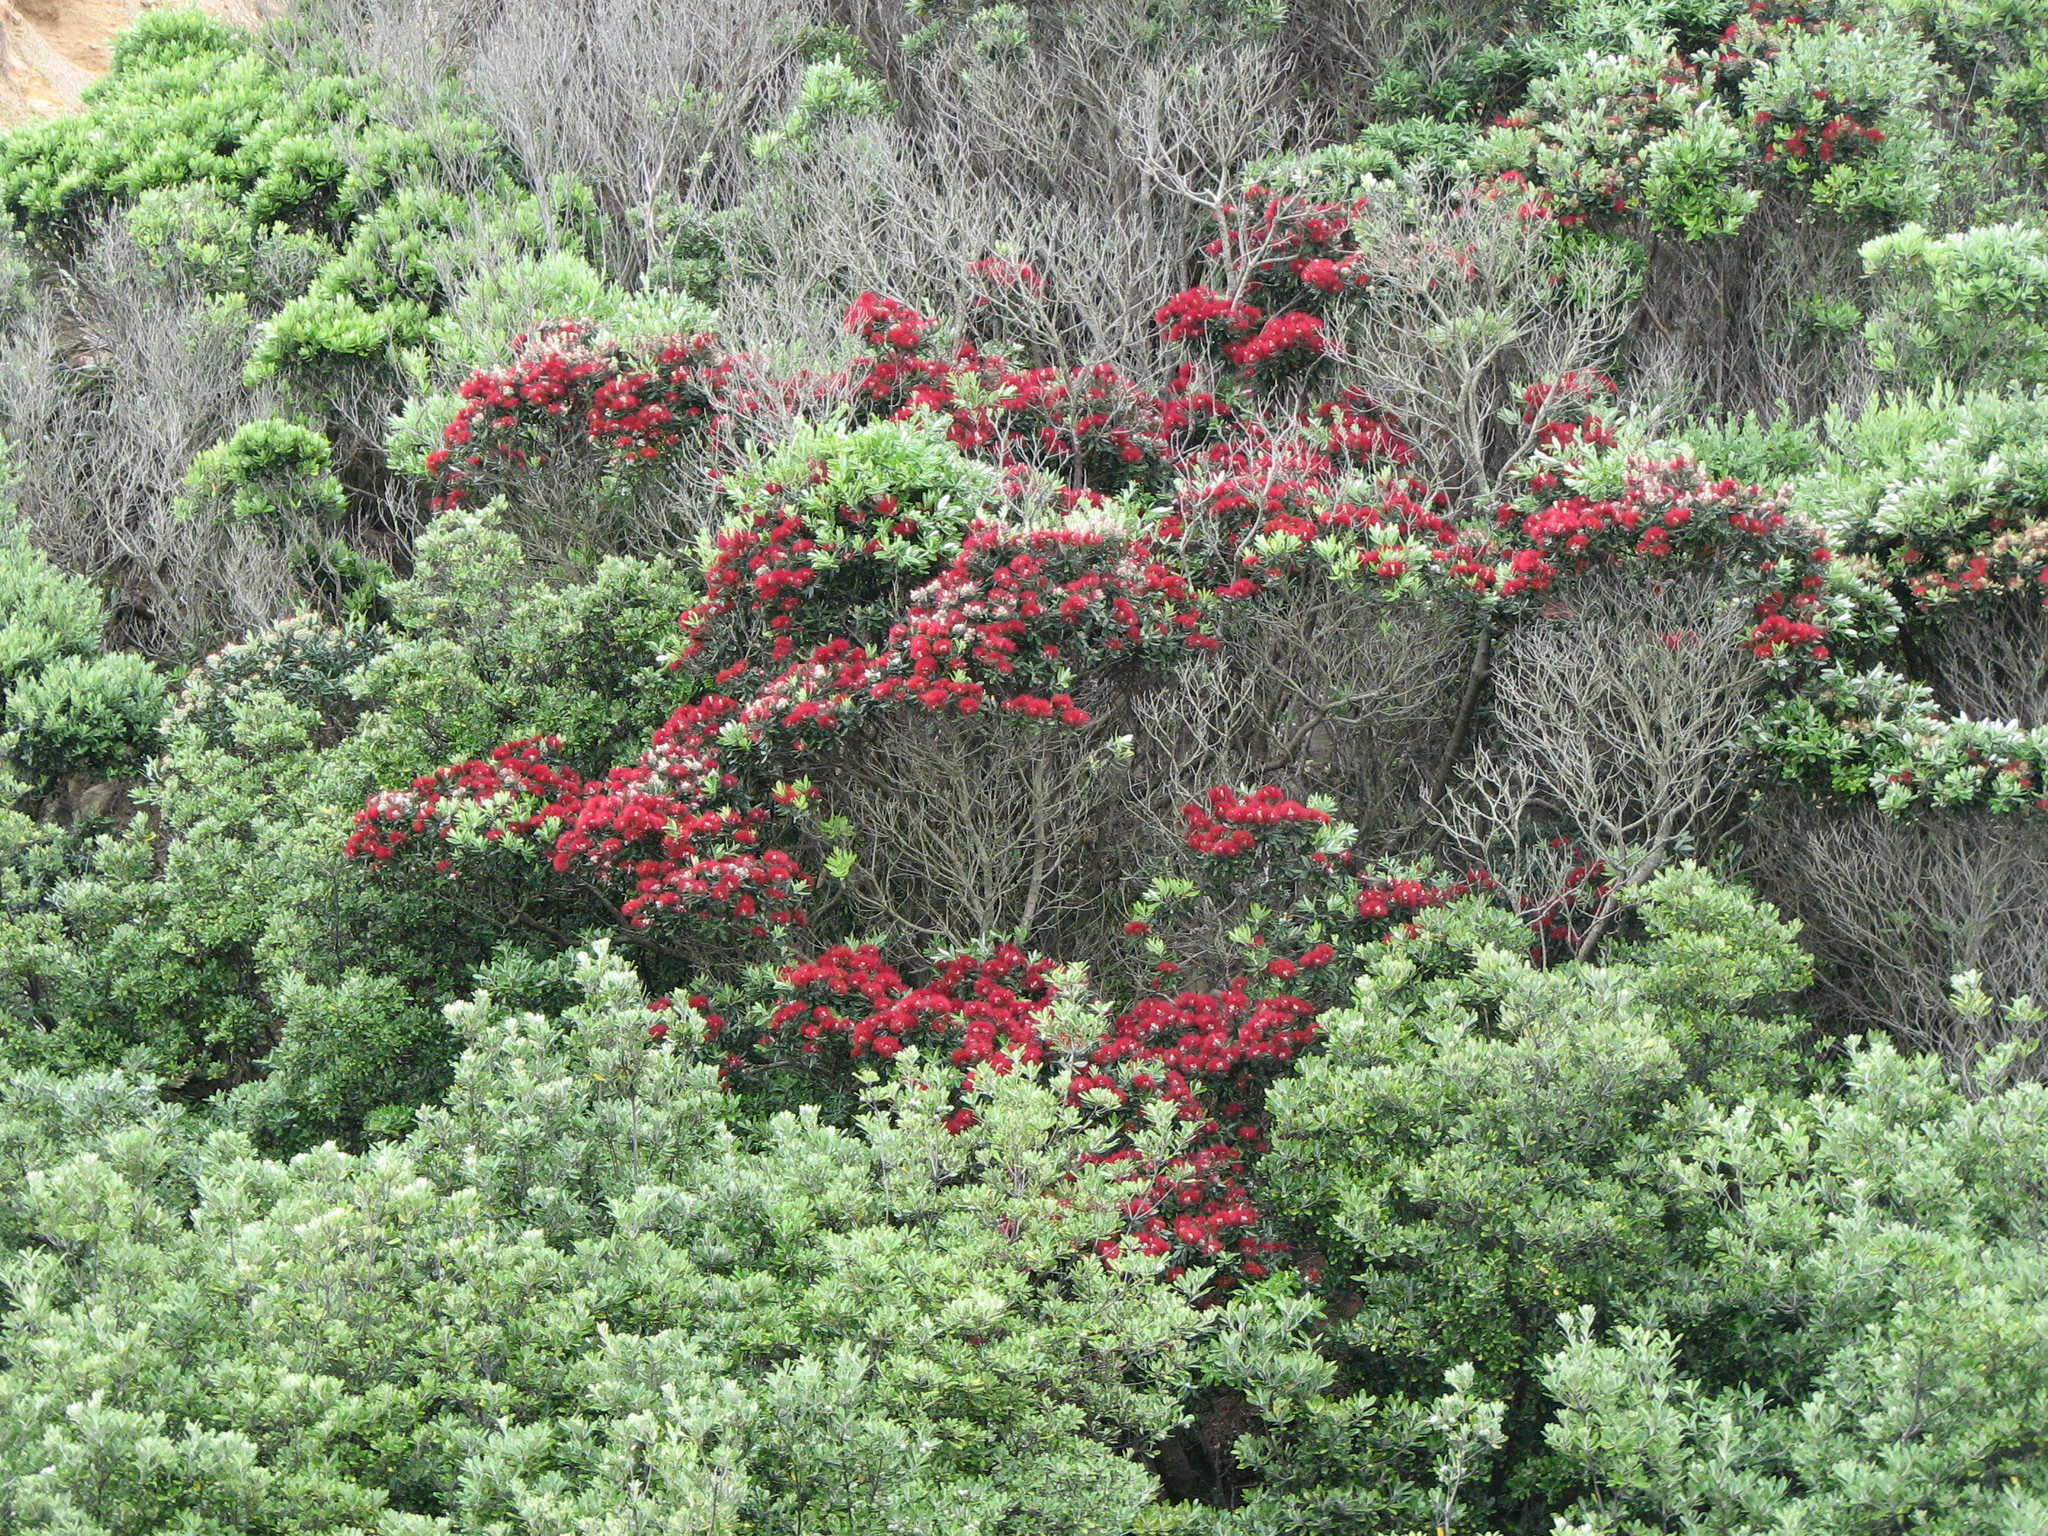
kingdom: Plantae
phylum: Tracheophyta
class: Magnoliopsida
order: Myrtales
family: Myrtaceae
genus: Metrosideros
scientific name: Metrosideros excelsa
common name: New zealand christmastree
